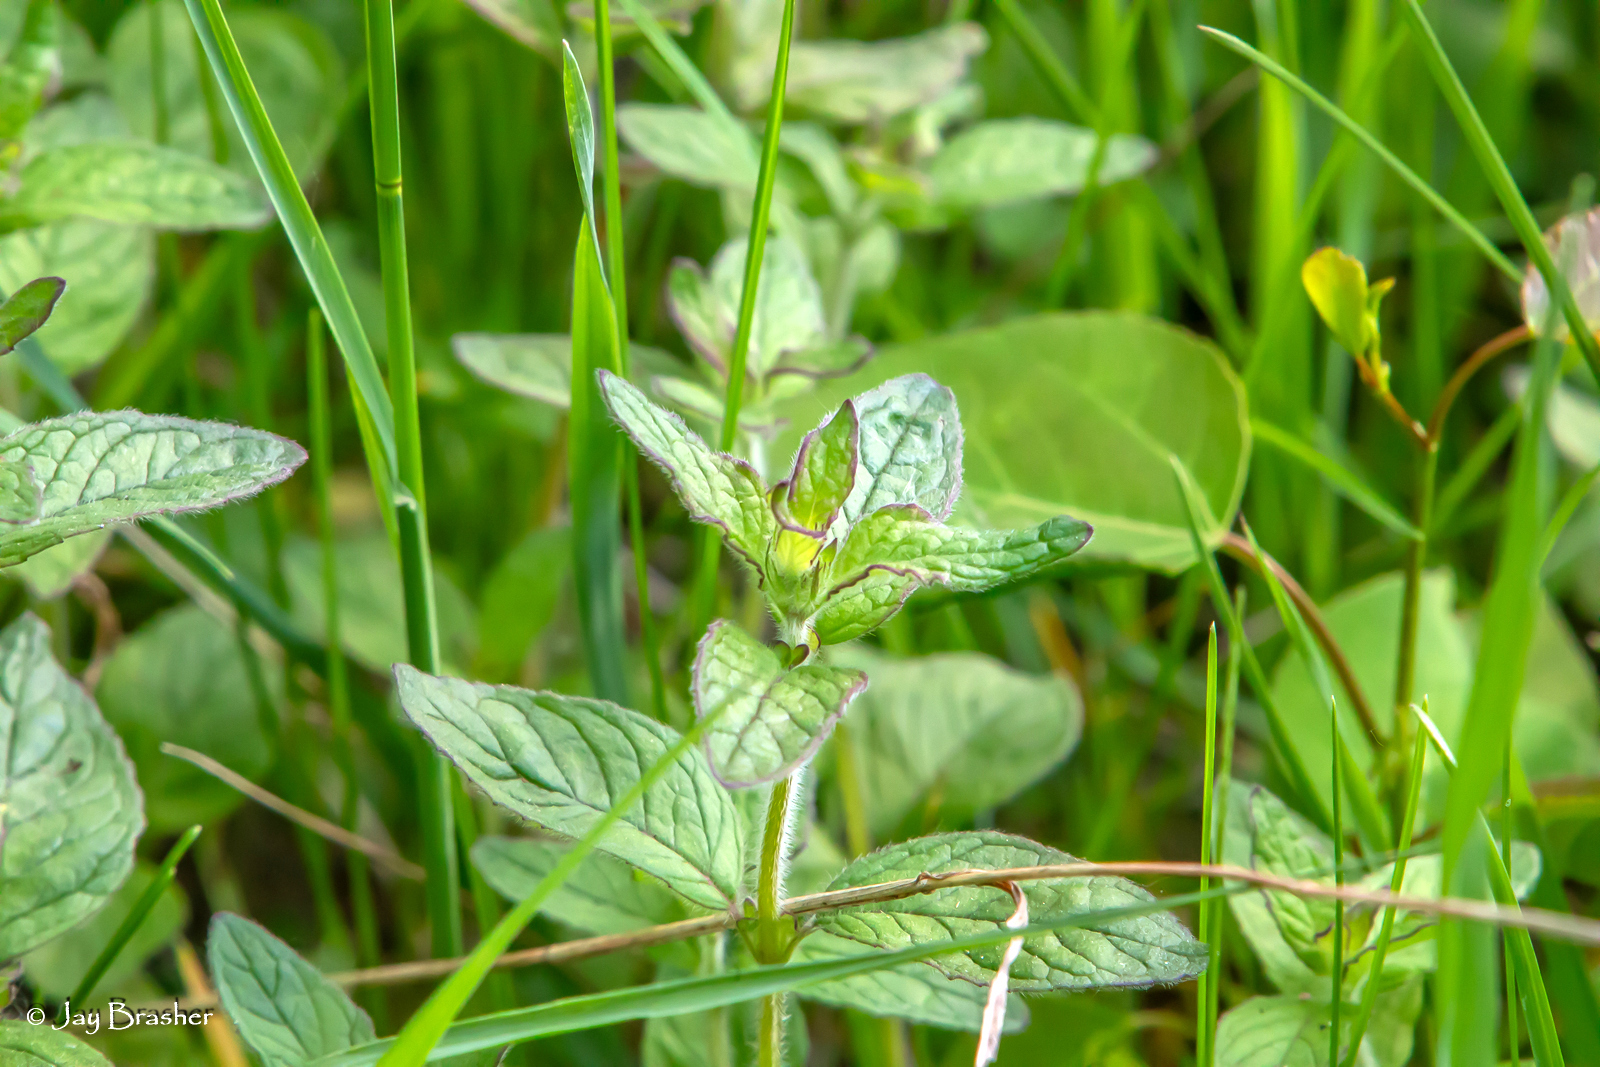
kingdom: Plantae
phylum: Tracheophyta
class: Magnoliopsida
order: Lamiales
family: Lamiaceae
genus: Clinopodium
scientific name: Clinopodium vulgare
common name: Wild basil
